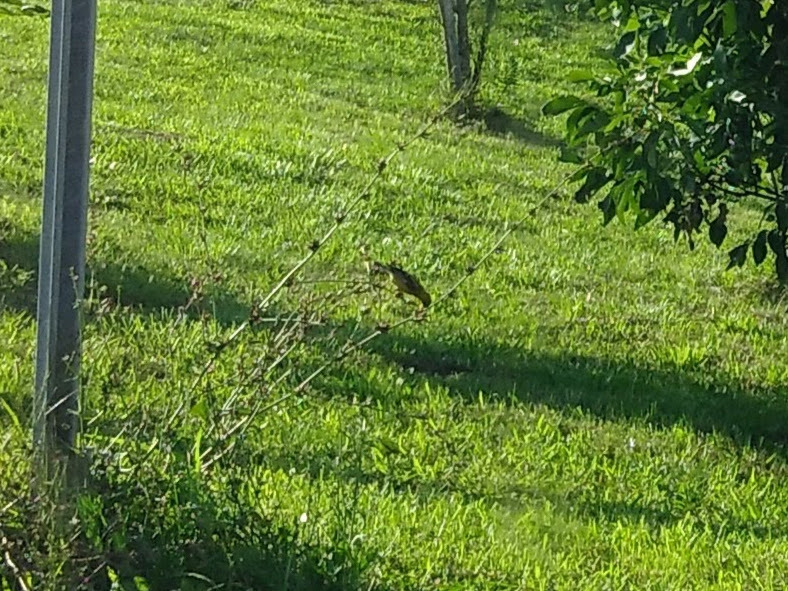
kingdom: Animalia
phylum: Chordata
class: Aves
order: Passeriformes
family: Fringillidae
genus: Spinus
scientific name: Spinus tristis
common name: American goldfinch
